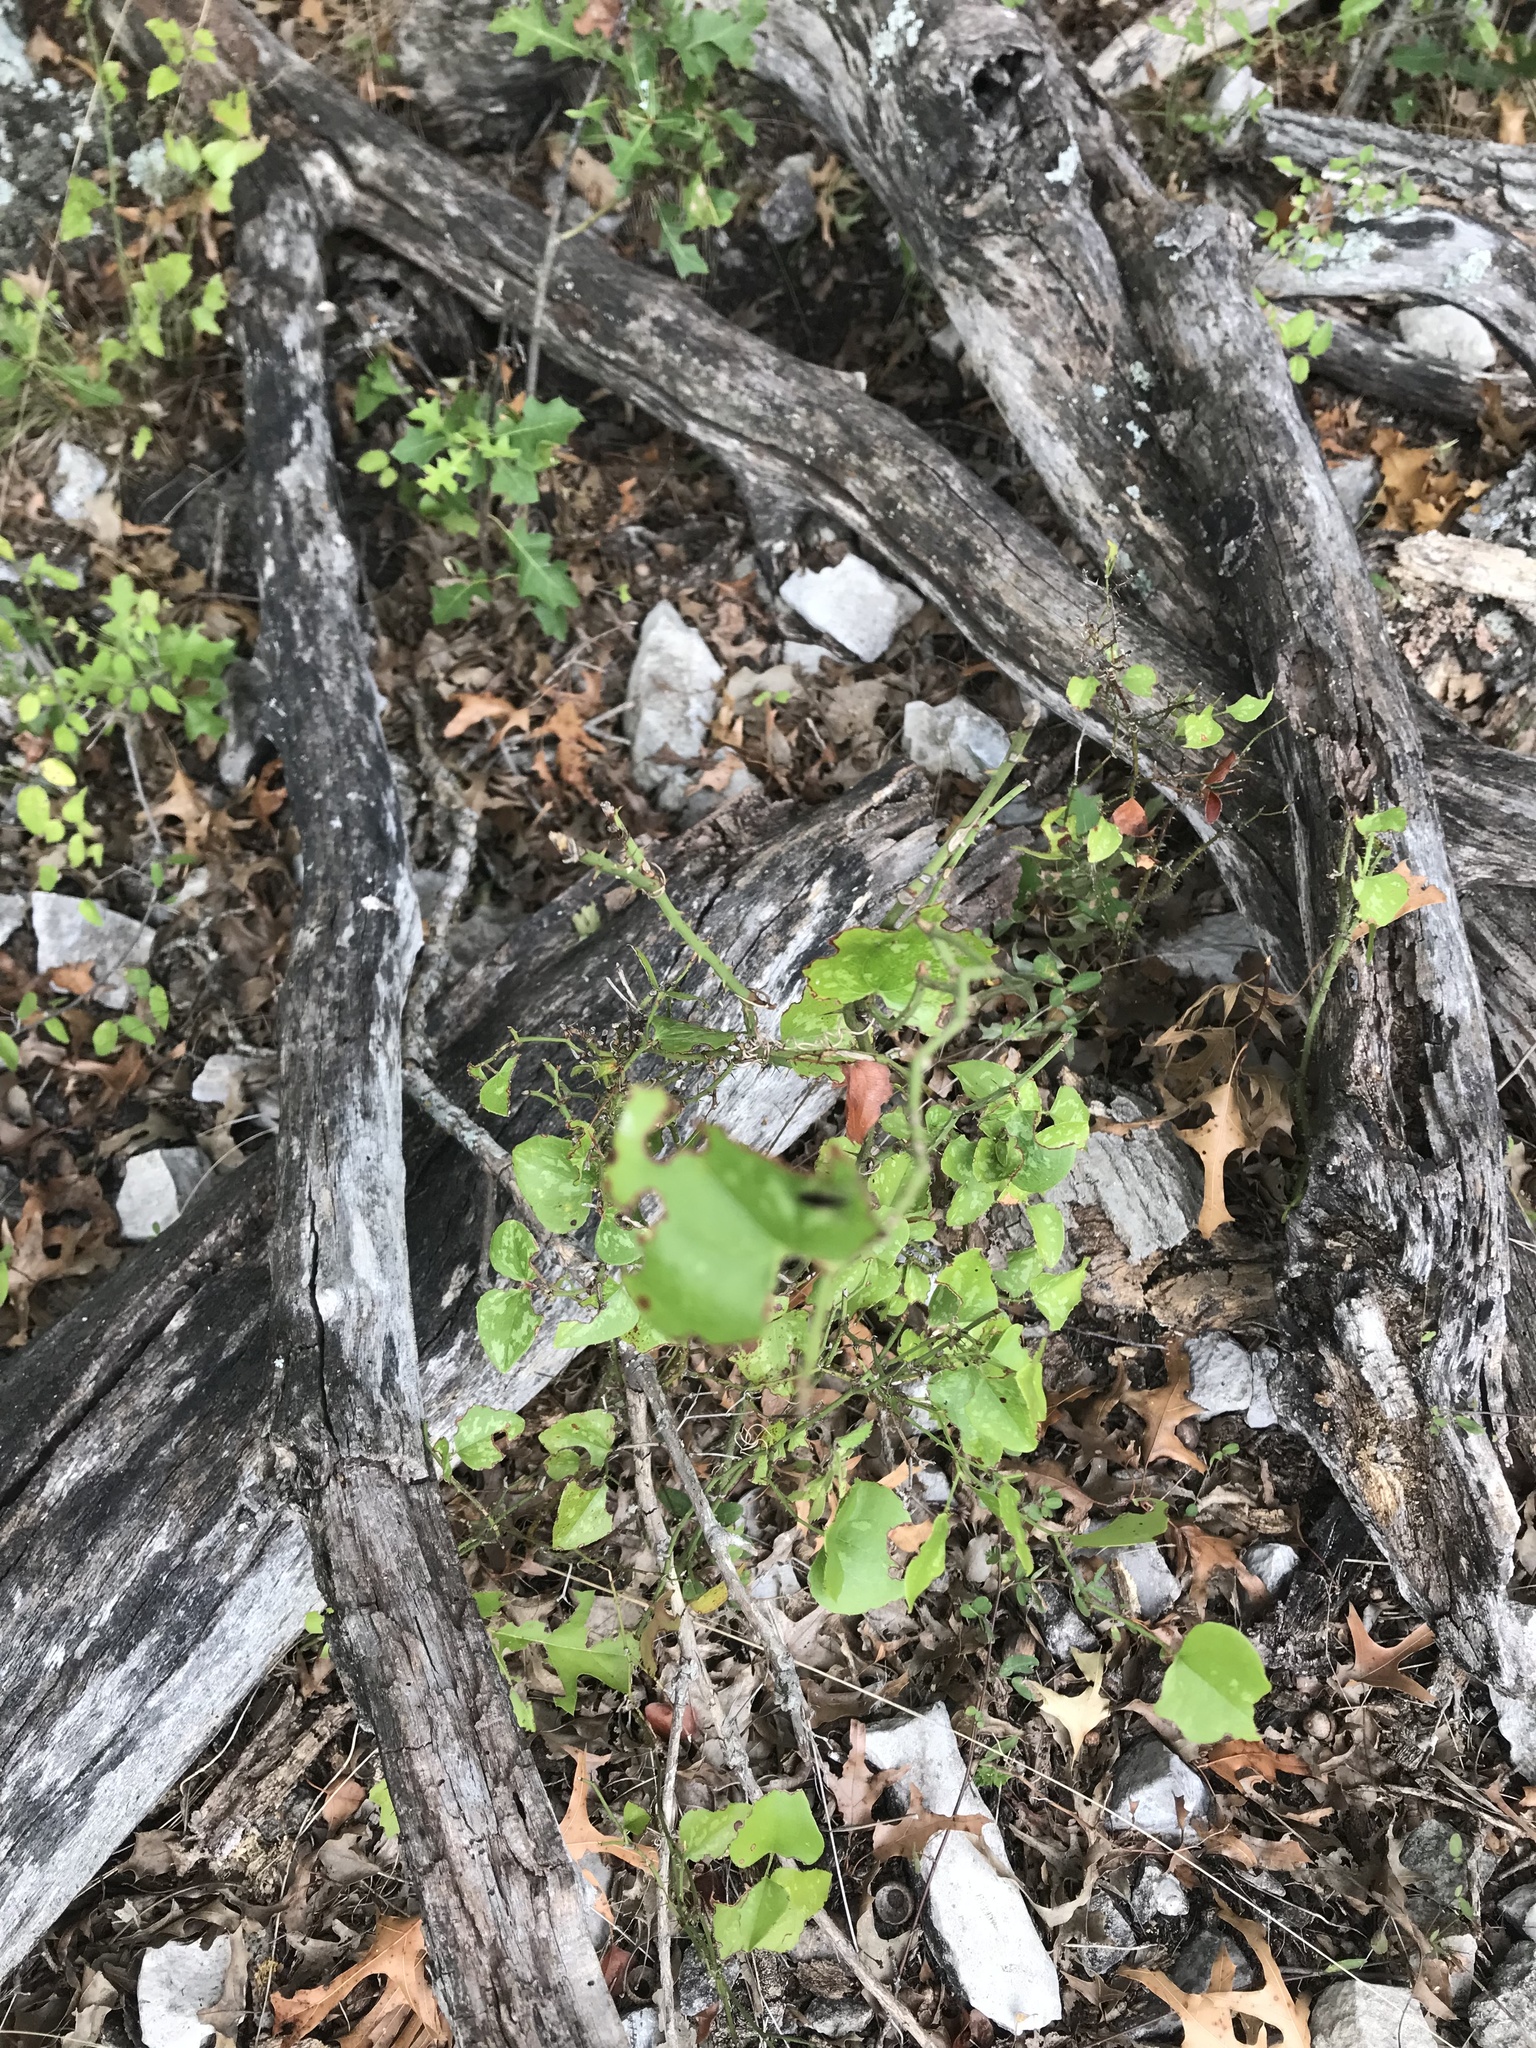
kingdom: Plantae
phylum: Tracheophyta
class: Liliopsida
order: Liliales
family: Smilacaceae
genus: Smilax
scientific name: Smilax bona-nox
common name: Catbrier
